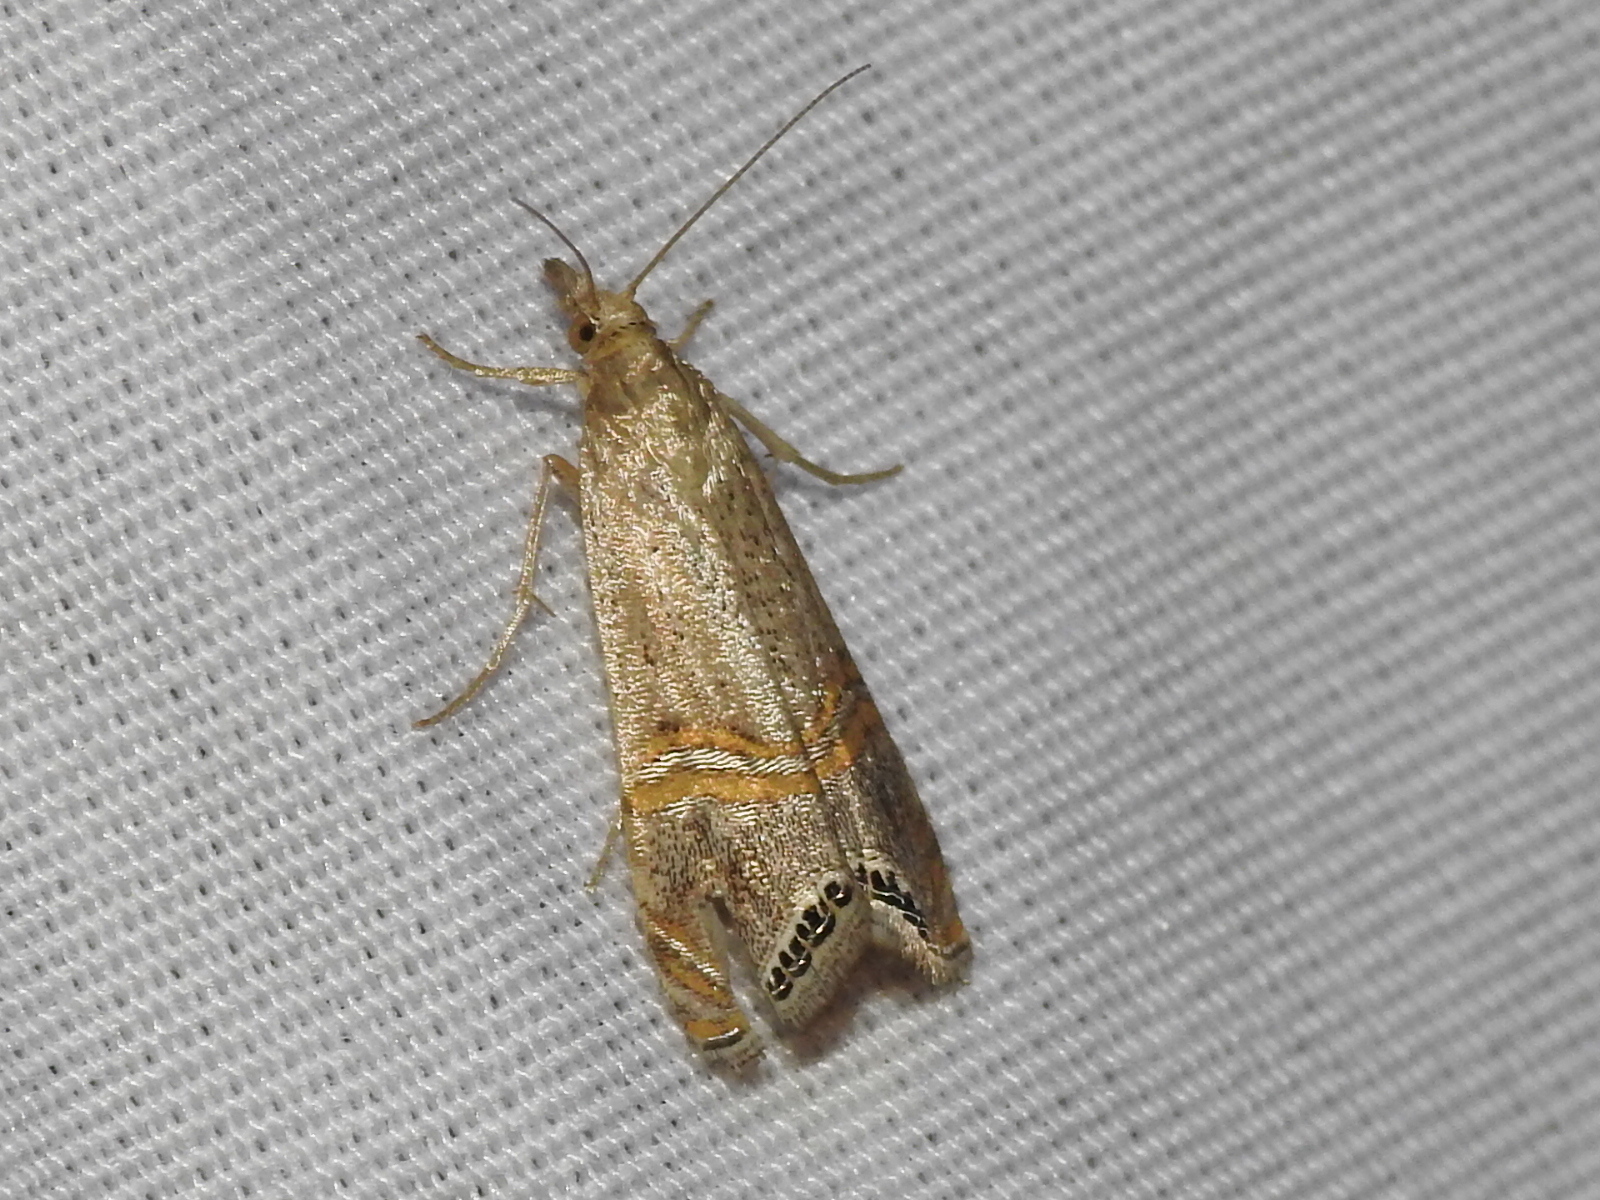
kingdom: Animalia
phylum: Arthropoda
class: Insecta
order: Lepidoptera
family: Crambidae
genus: Euchromius
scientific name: Euchromius ocellea
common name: Necklace veneer moth
